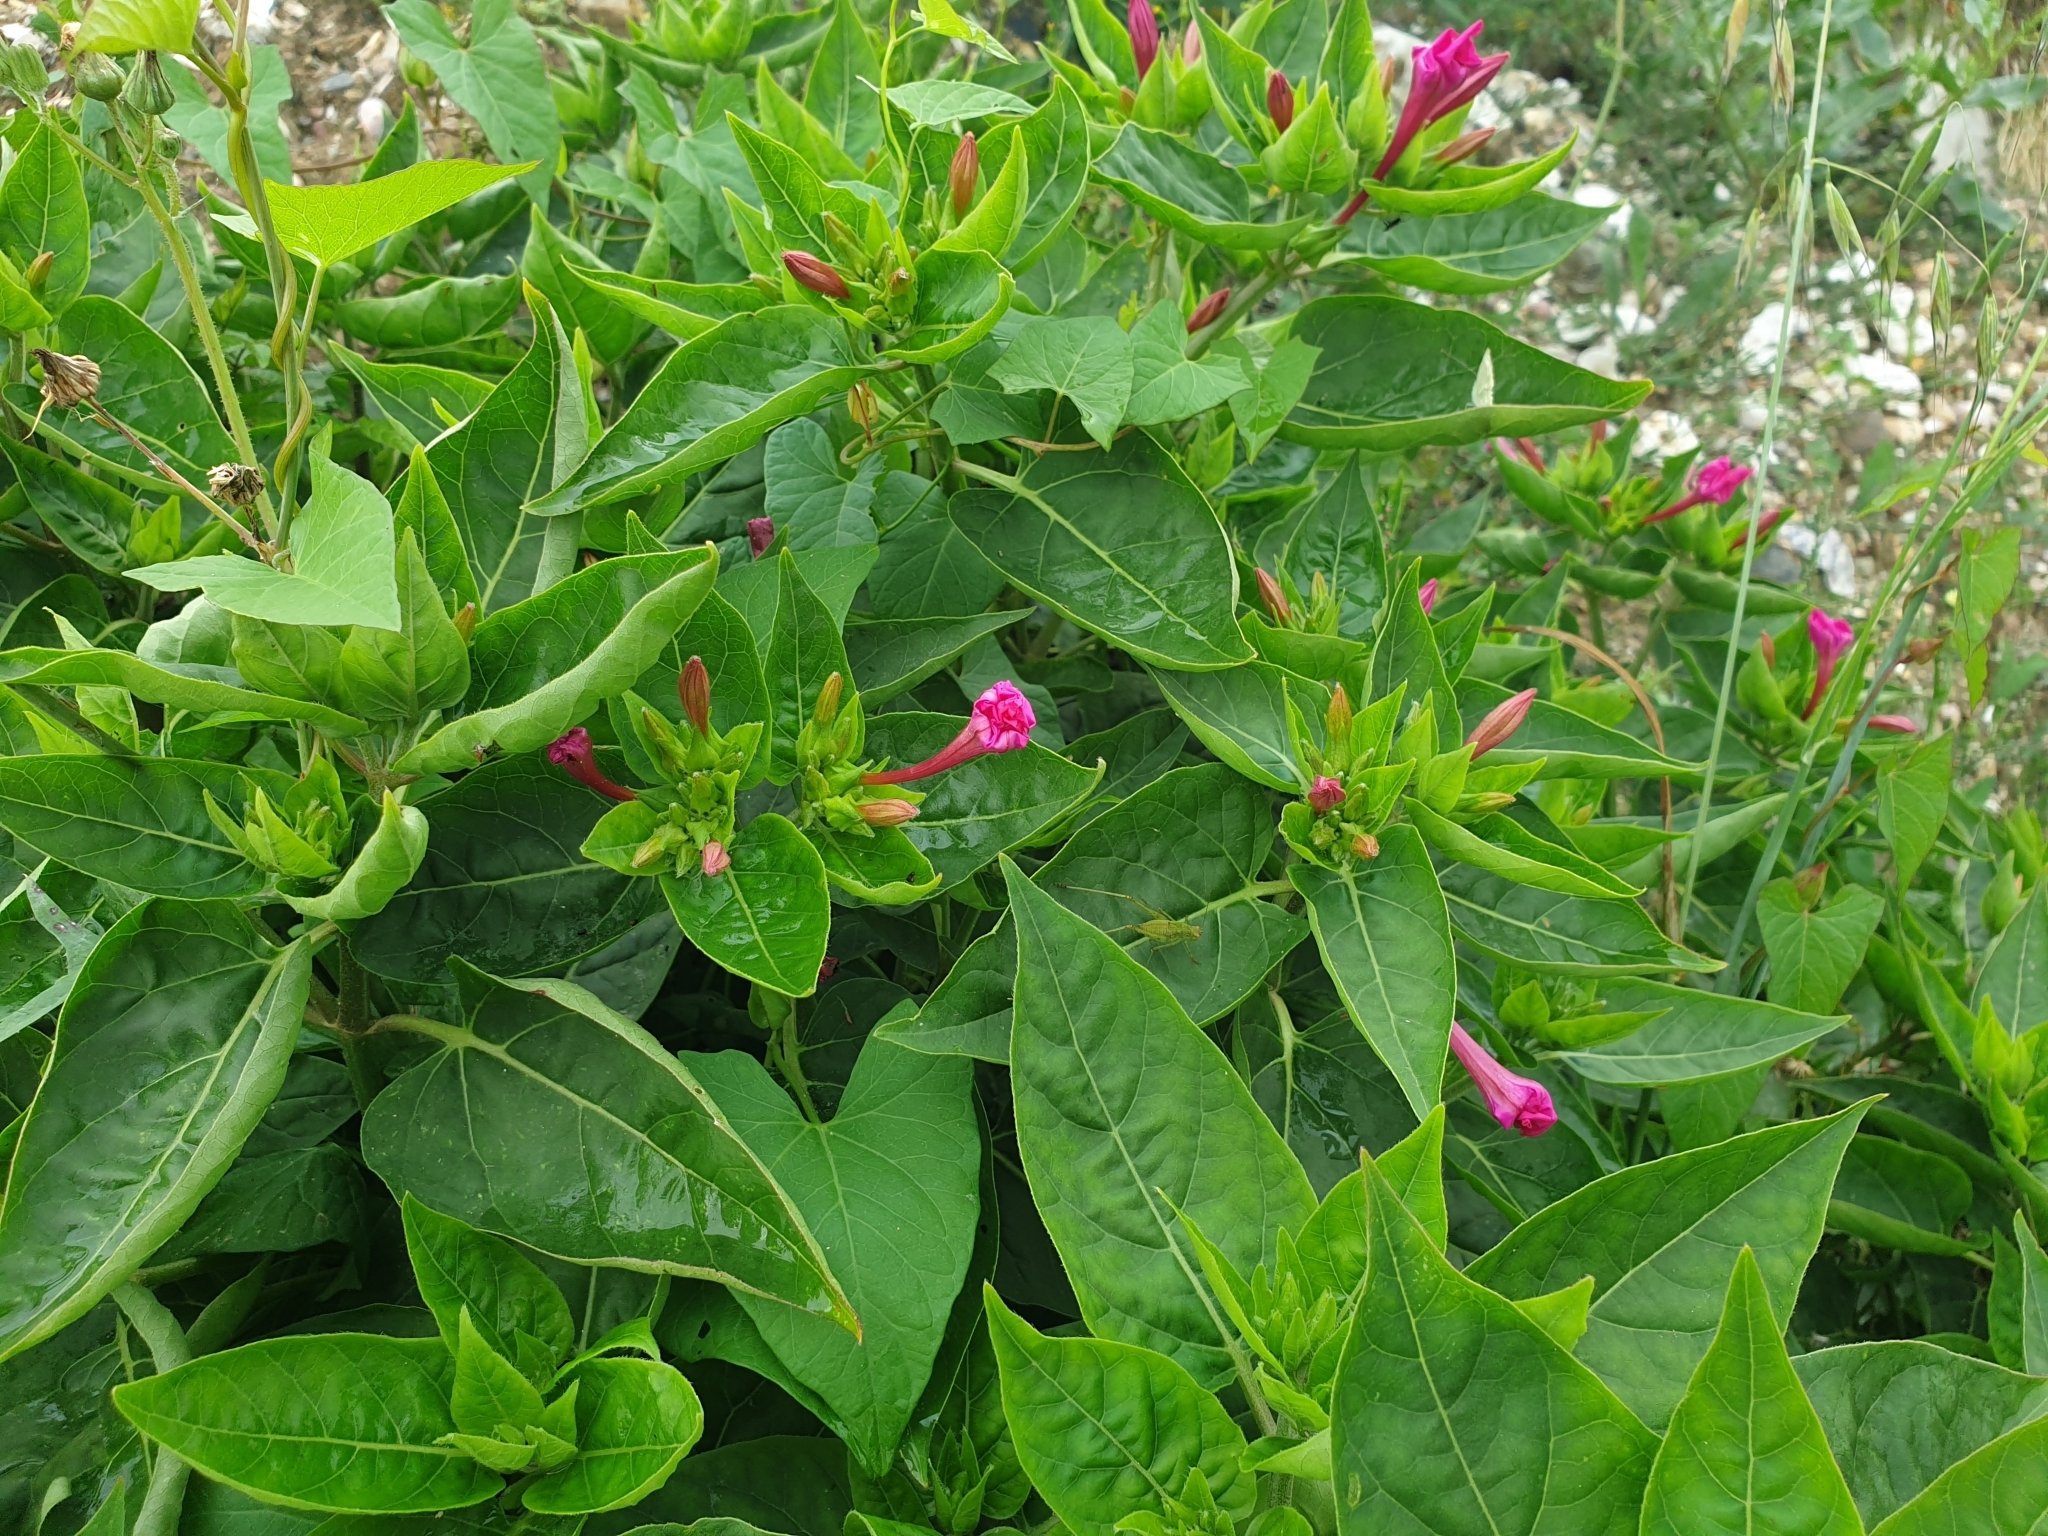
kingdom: Plantae
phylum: Tracheophyta
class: Magnoliopsida
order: Caryophyllales
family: Nyctaginaceae
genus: Mirabilis
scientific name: Mirabilis jalapa
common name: Marvel-of-peru
